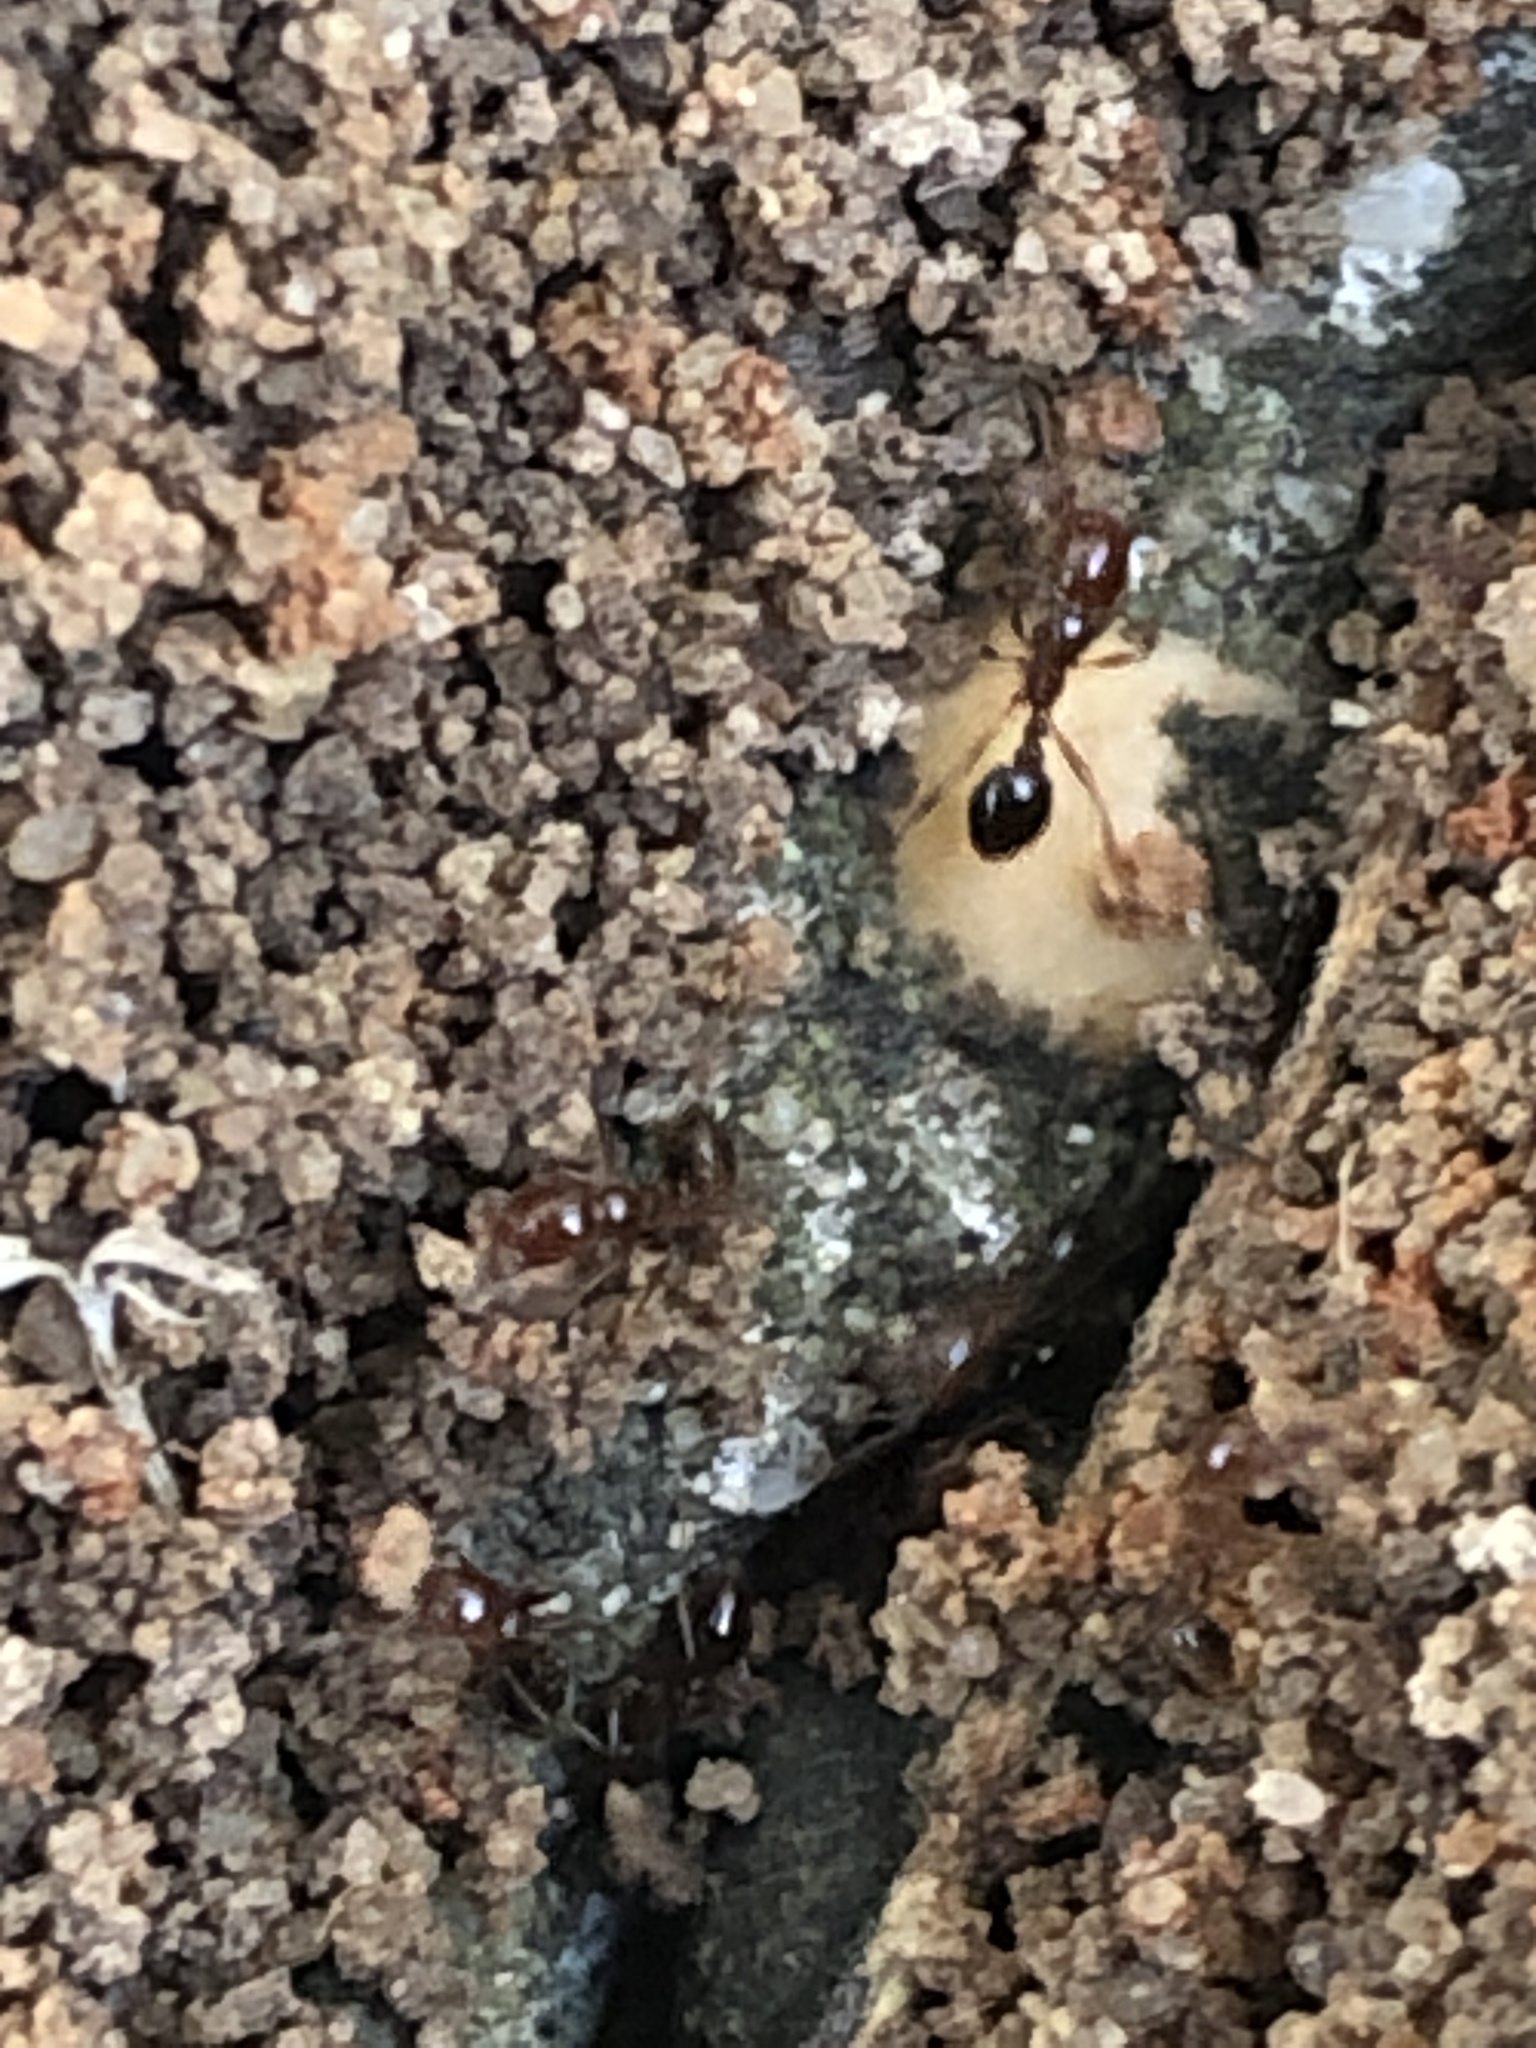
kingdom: Animalia
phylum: Arthropoda
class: Insecta
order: Hymenoptera
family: Formicidae
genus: Solenopsis
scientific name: Solenopsis invicta
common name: Red imported fire ant
